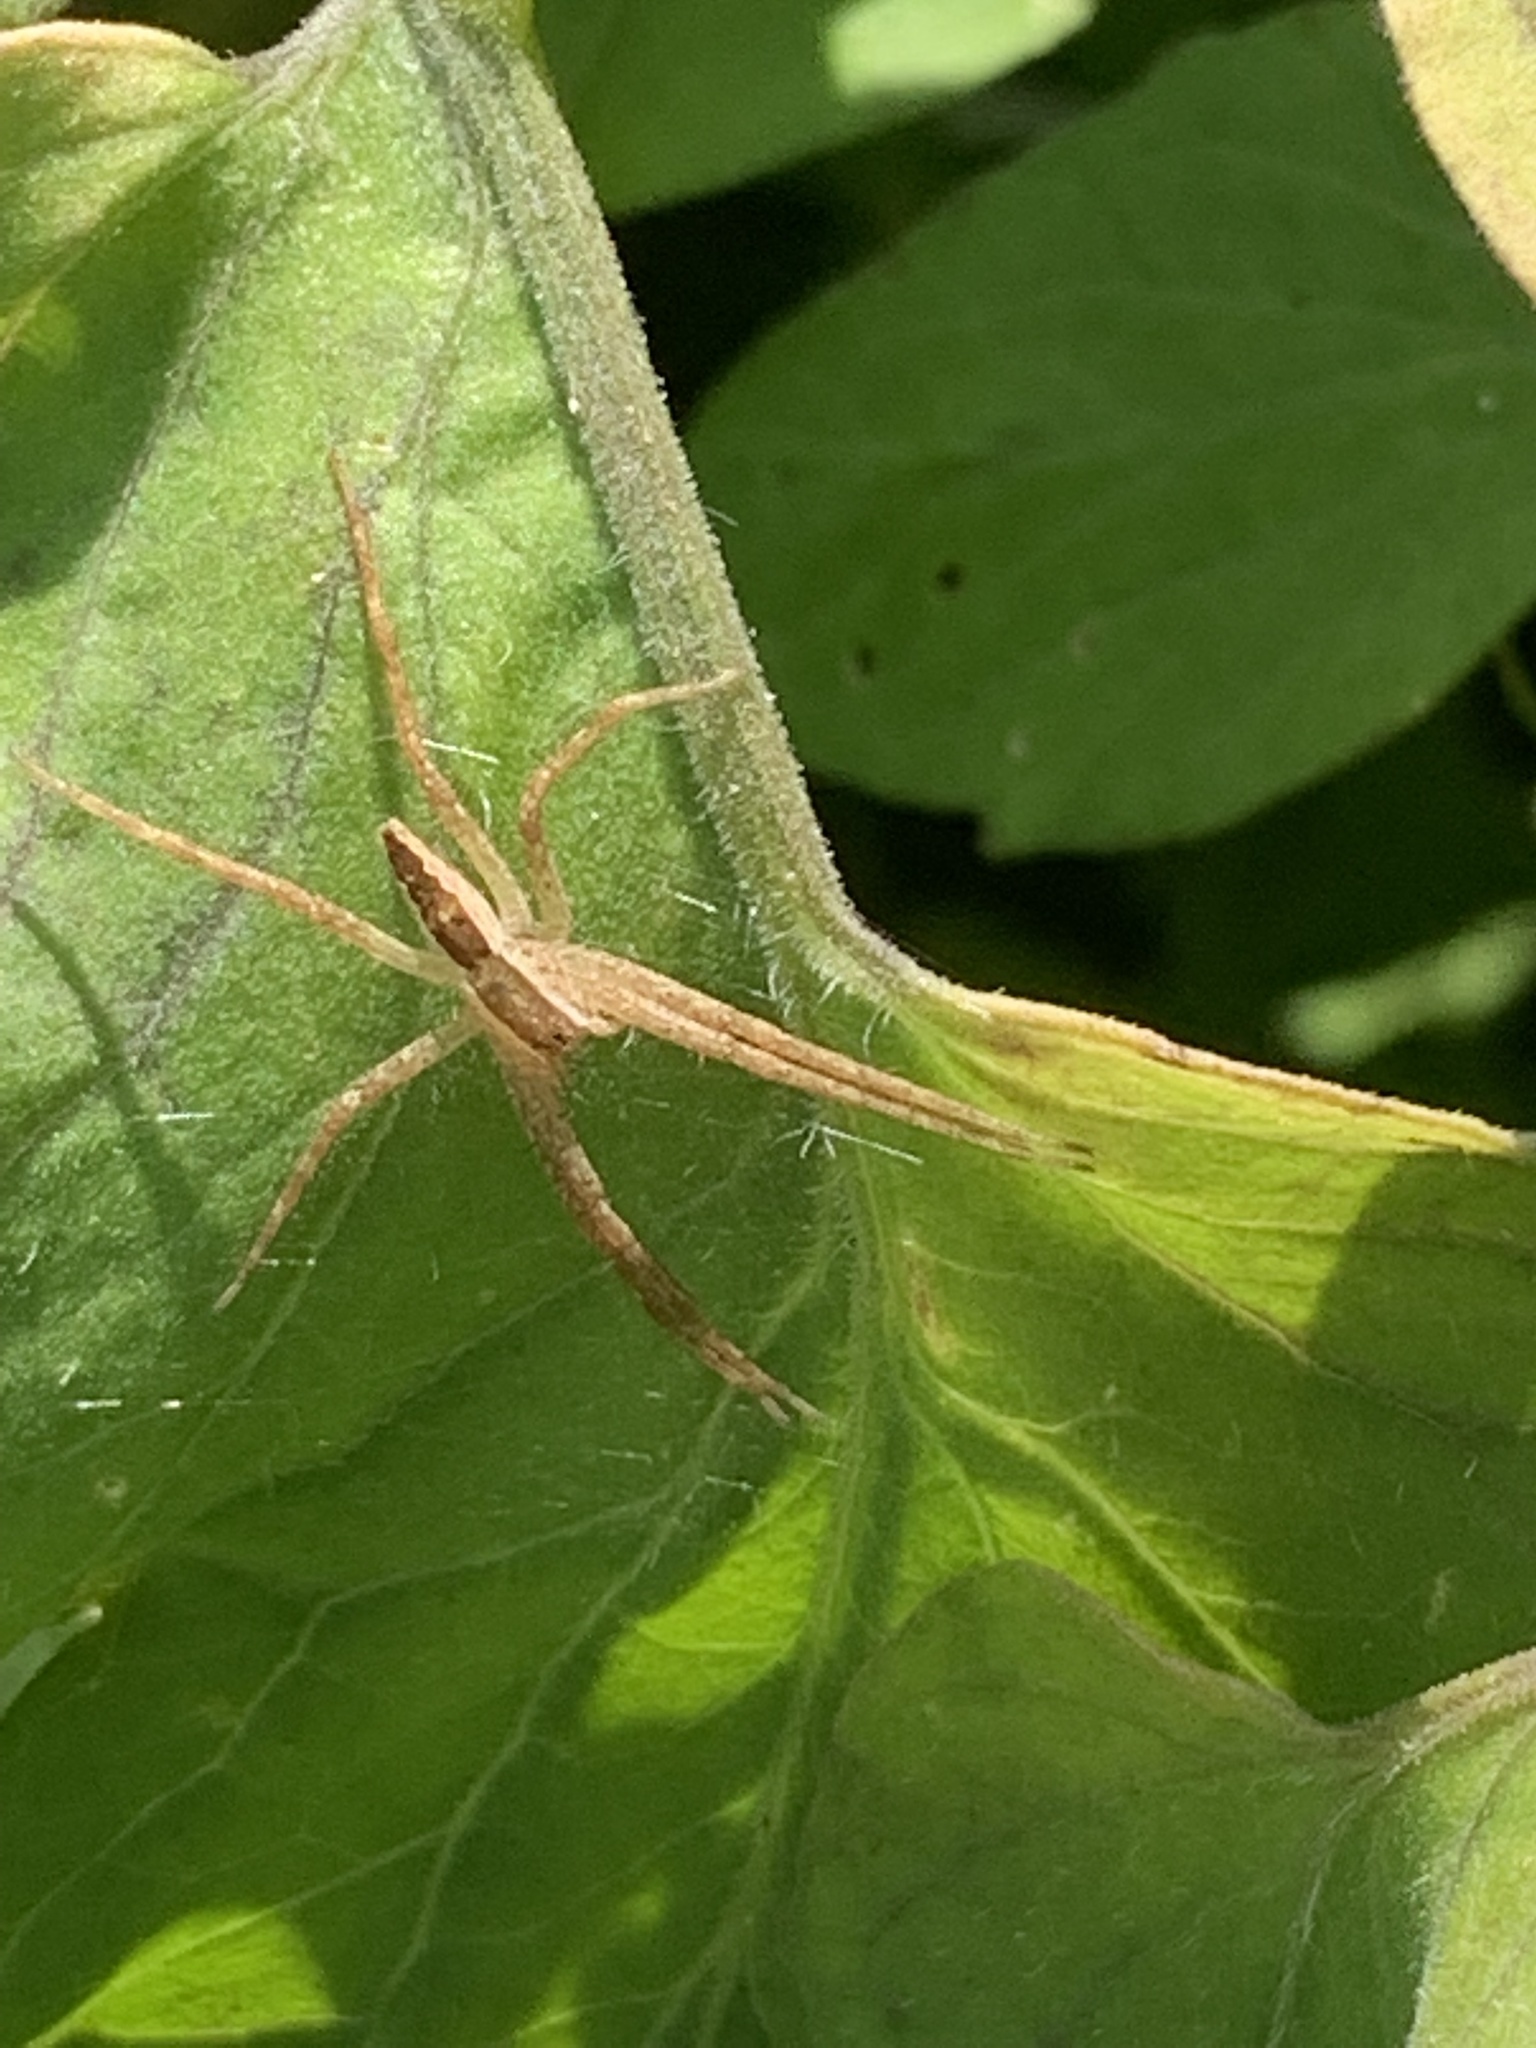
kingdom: Animalia
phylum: Arthropoda
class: Arachnida
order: Araneae
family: Pisauridae
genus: Pisaurina
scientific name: Pisaurina mira
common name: American nursery web spider
